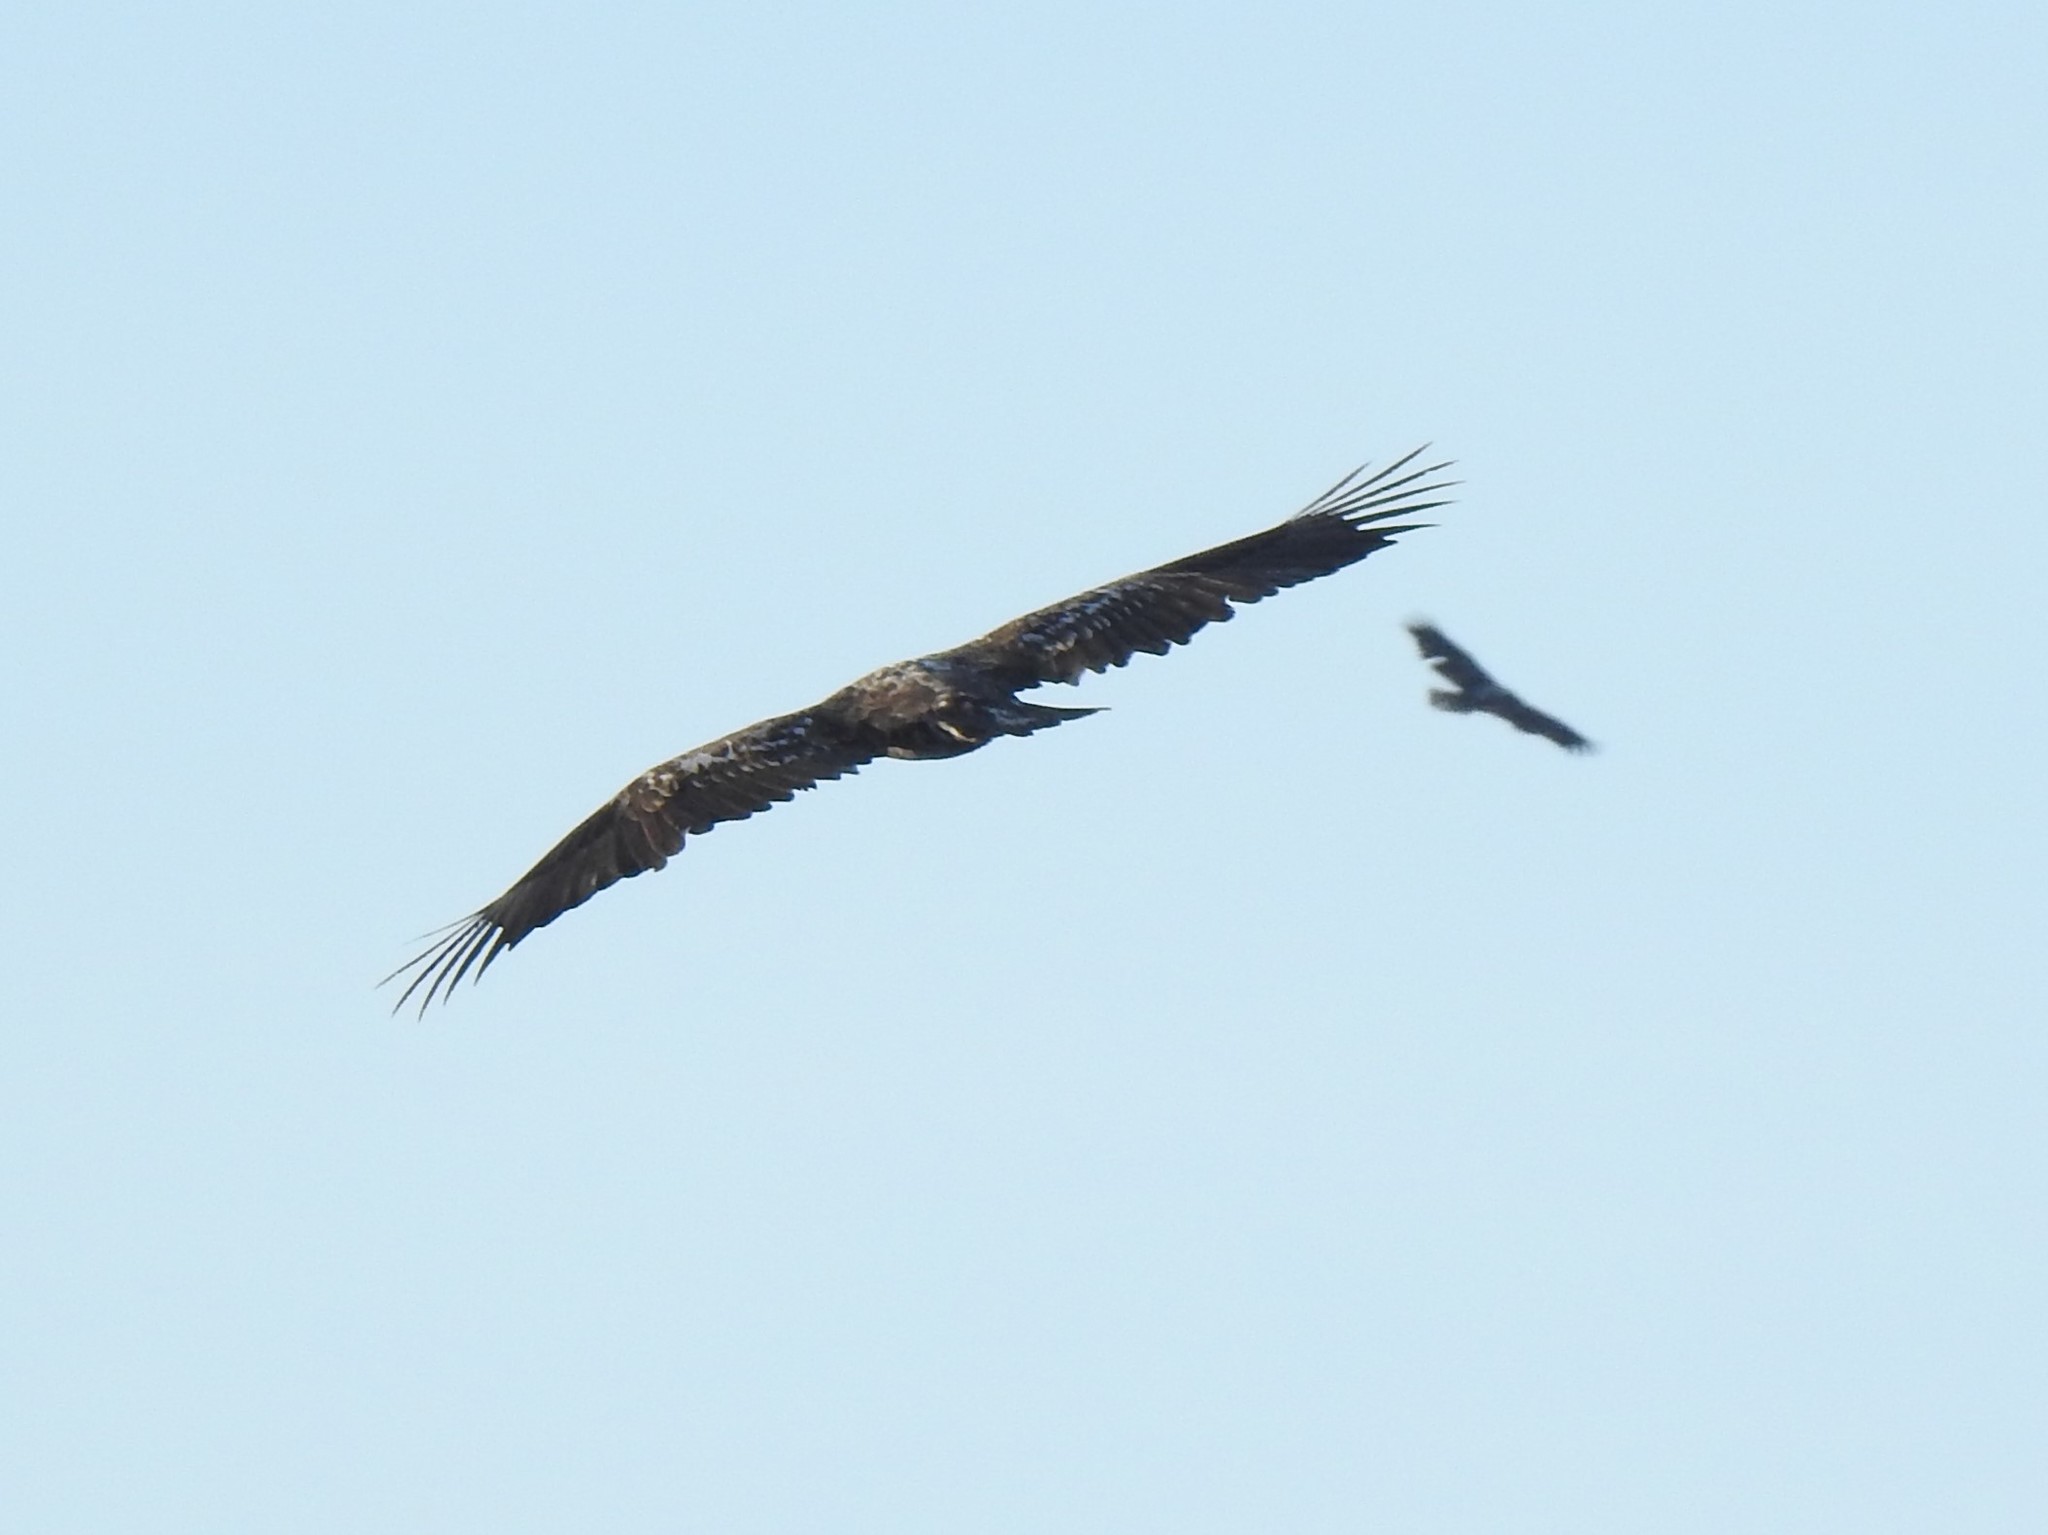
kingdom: Animalia
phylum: Chordata
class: Aves
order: Accipitriformes
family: Accipitridae
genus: Haliaeetus
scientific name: Haliaeetus leucocephalus
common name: Bald eagle
